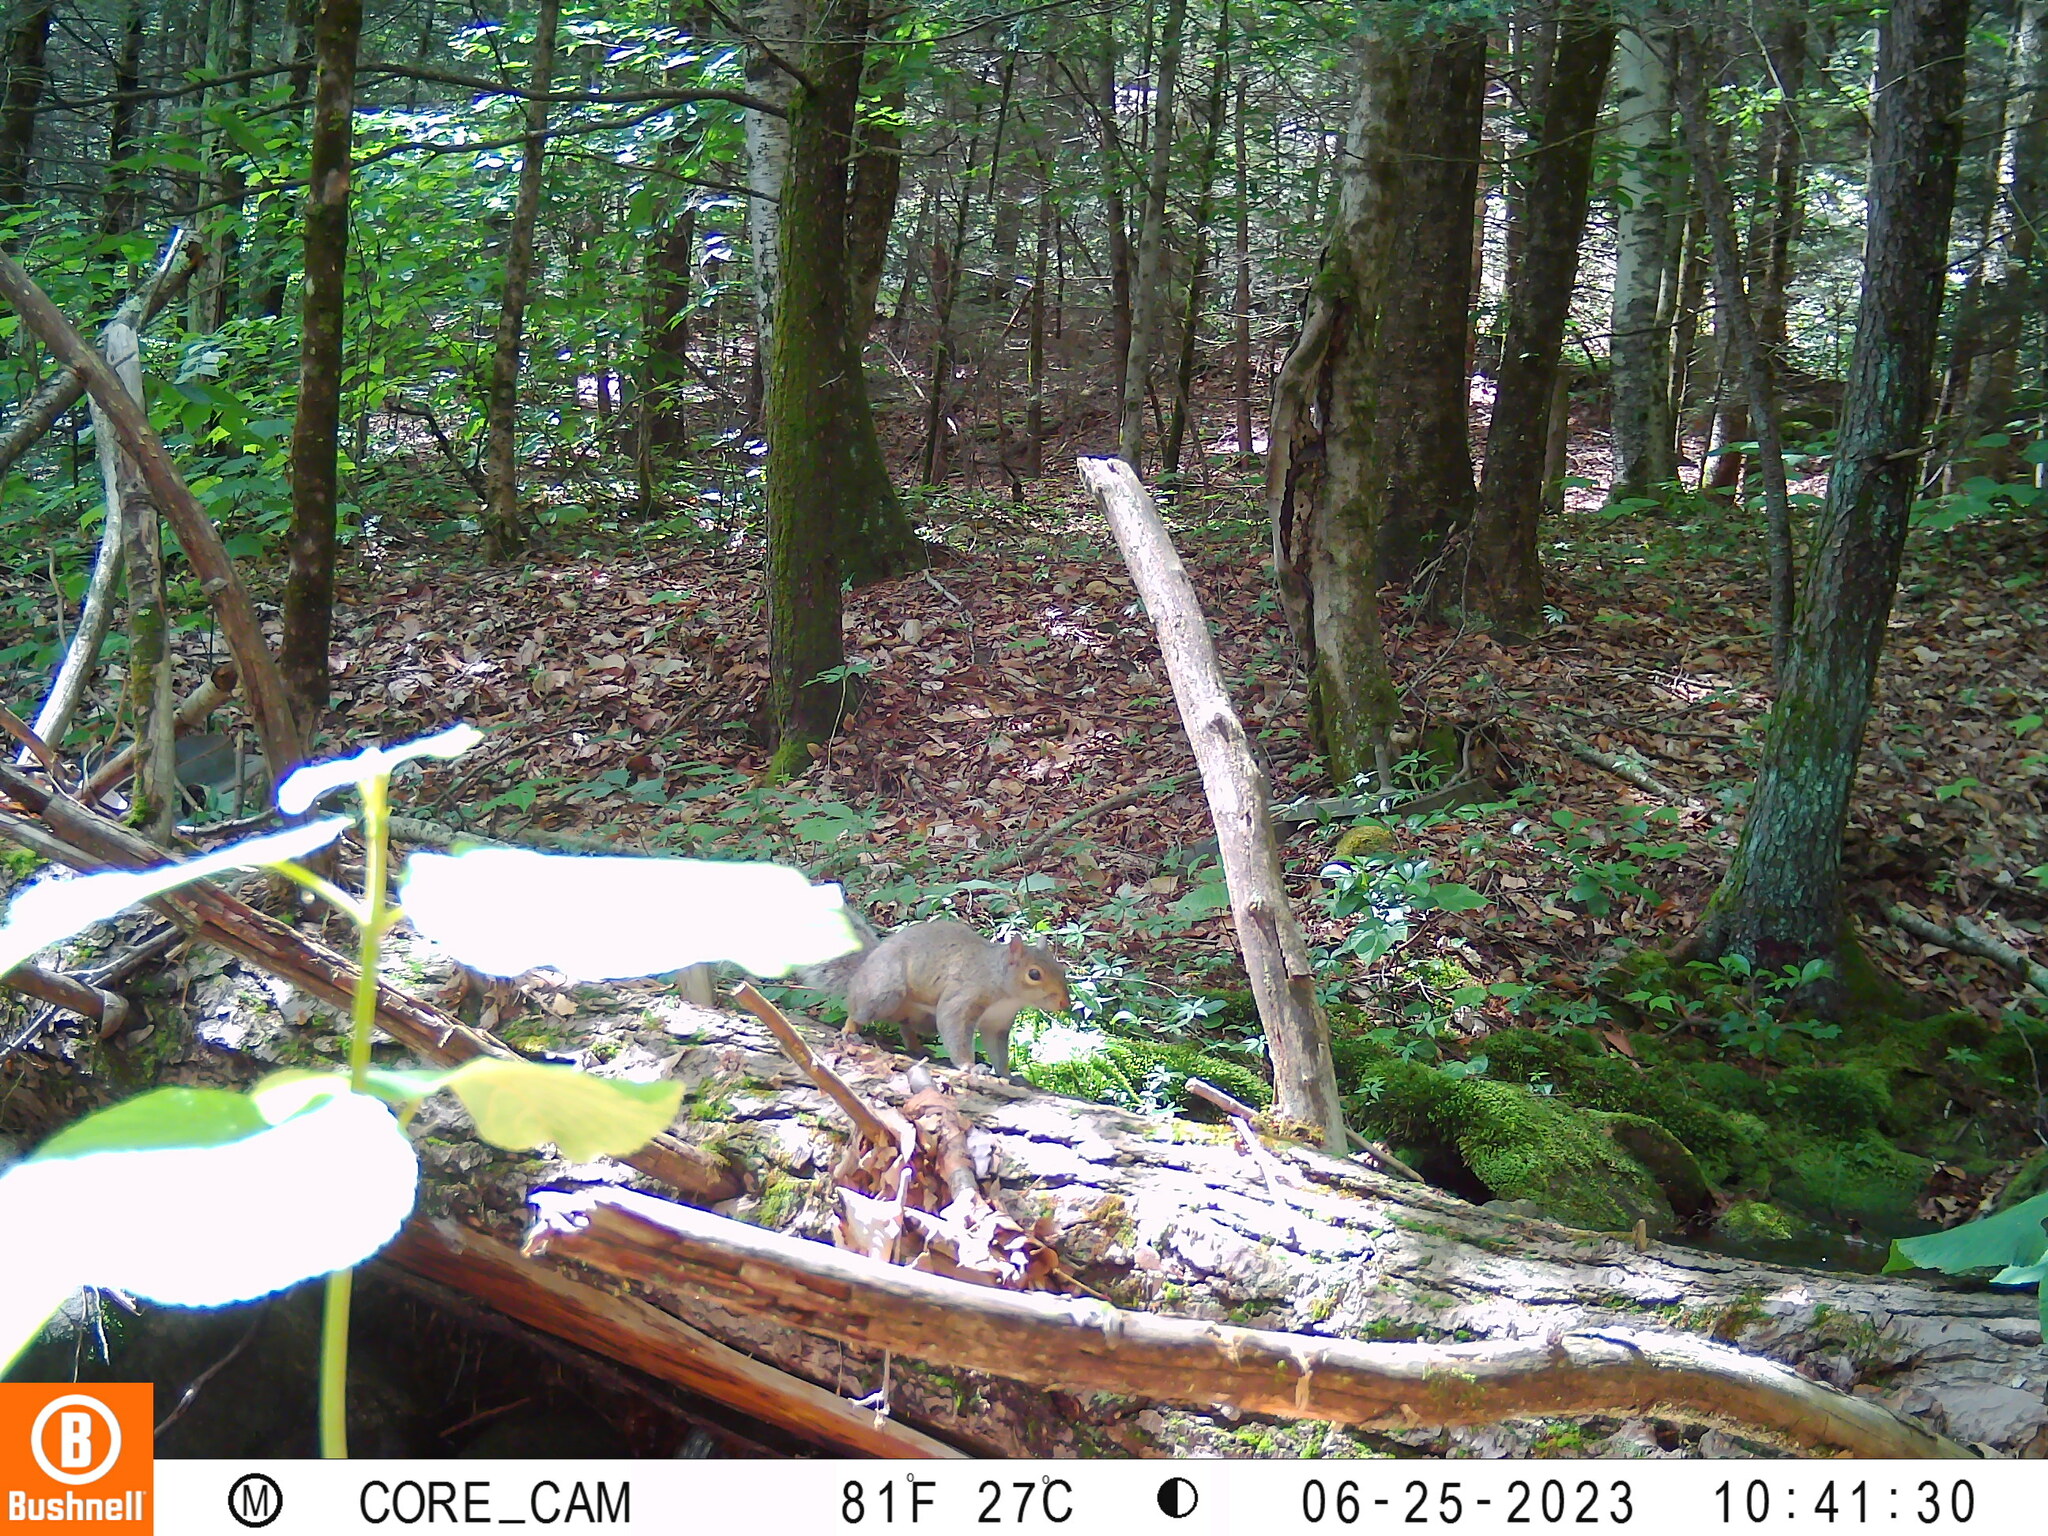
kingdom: Animalia
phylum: Chordata
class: Mammalia
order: Rodentia
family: Sciuridae
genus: Sciurus
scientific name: Sciurus carolinensis
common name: Eastern gray squirrel
